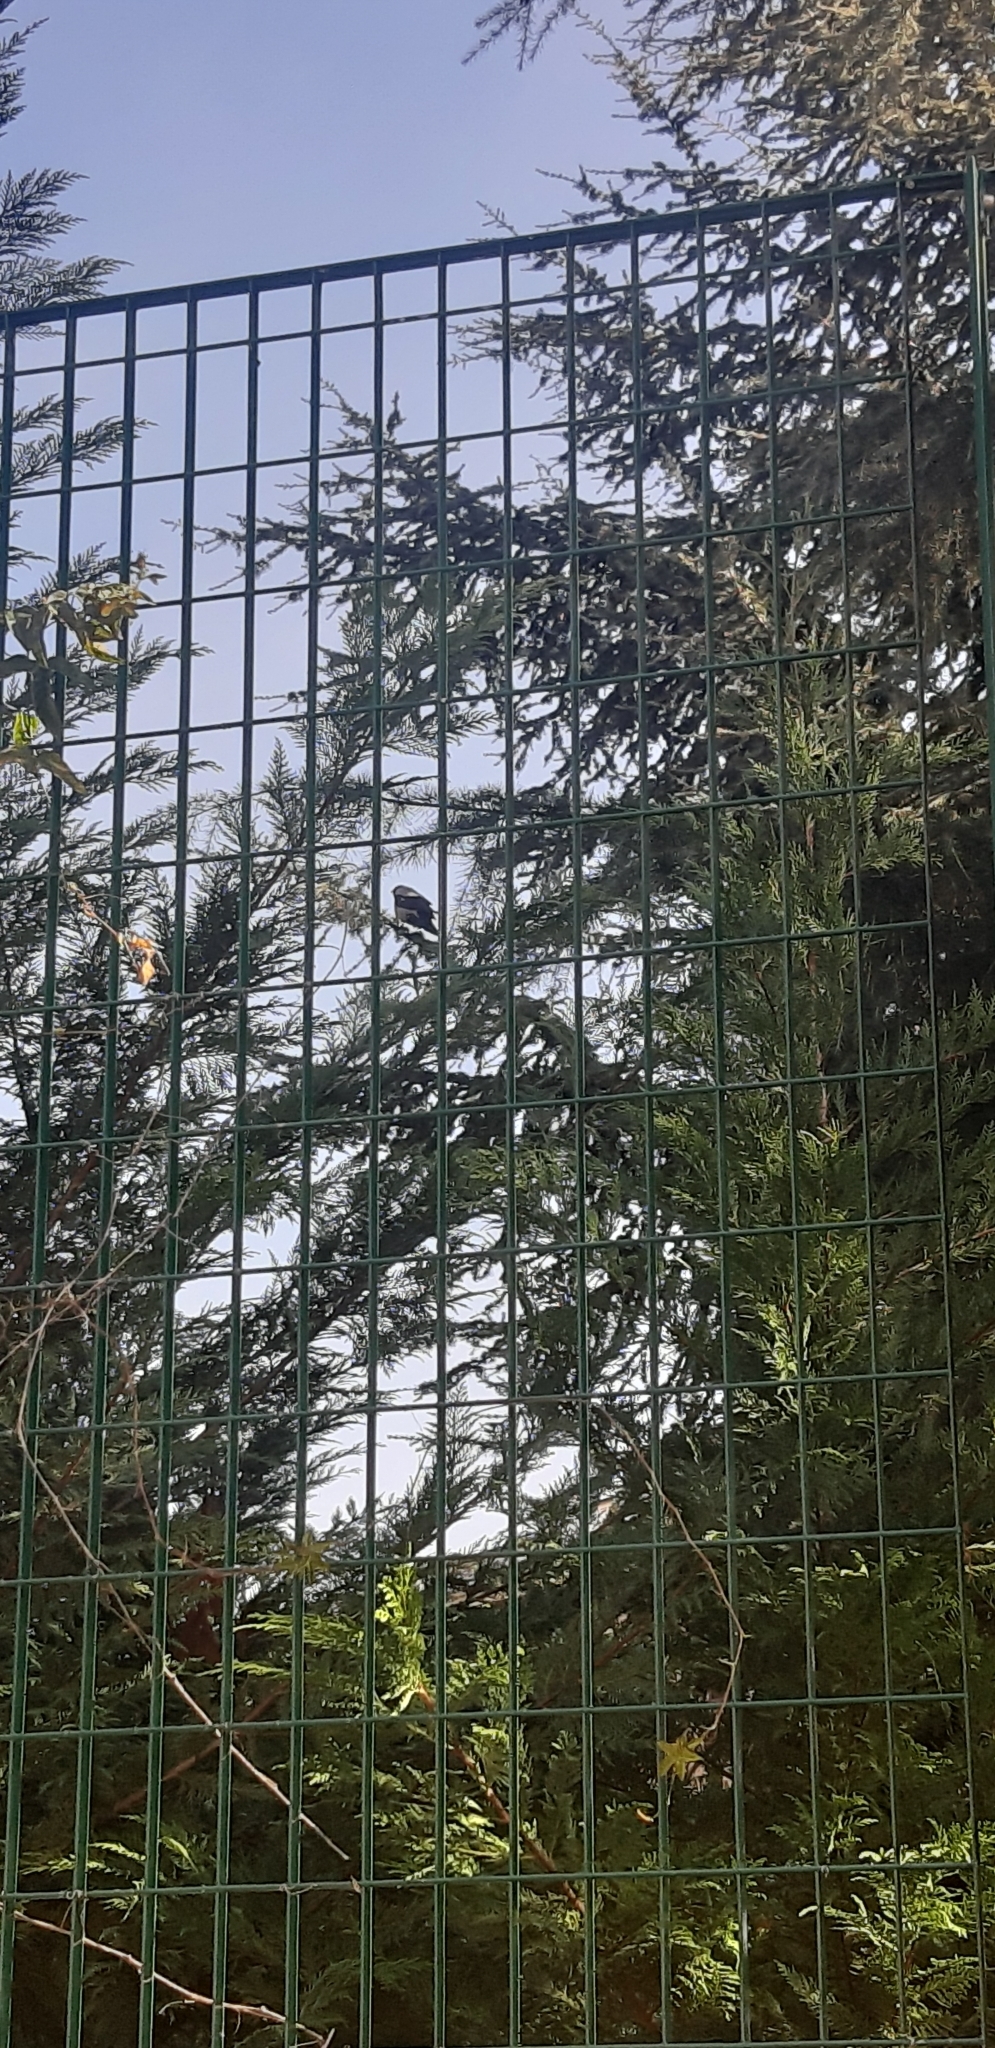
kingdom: Animalia
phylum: Chordata
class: Aves
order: Passeriformes
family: Corvidae
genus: Corvus
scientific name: Corvus cornix
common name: Hooded crow
